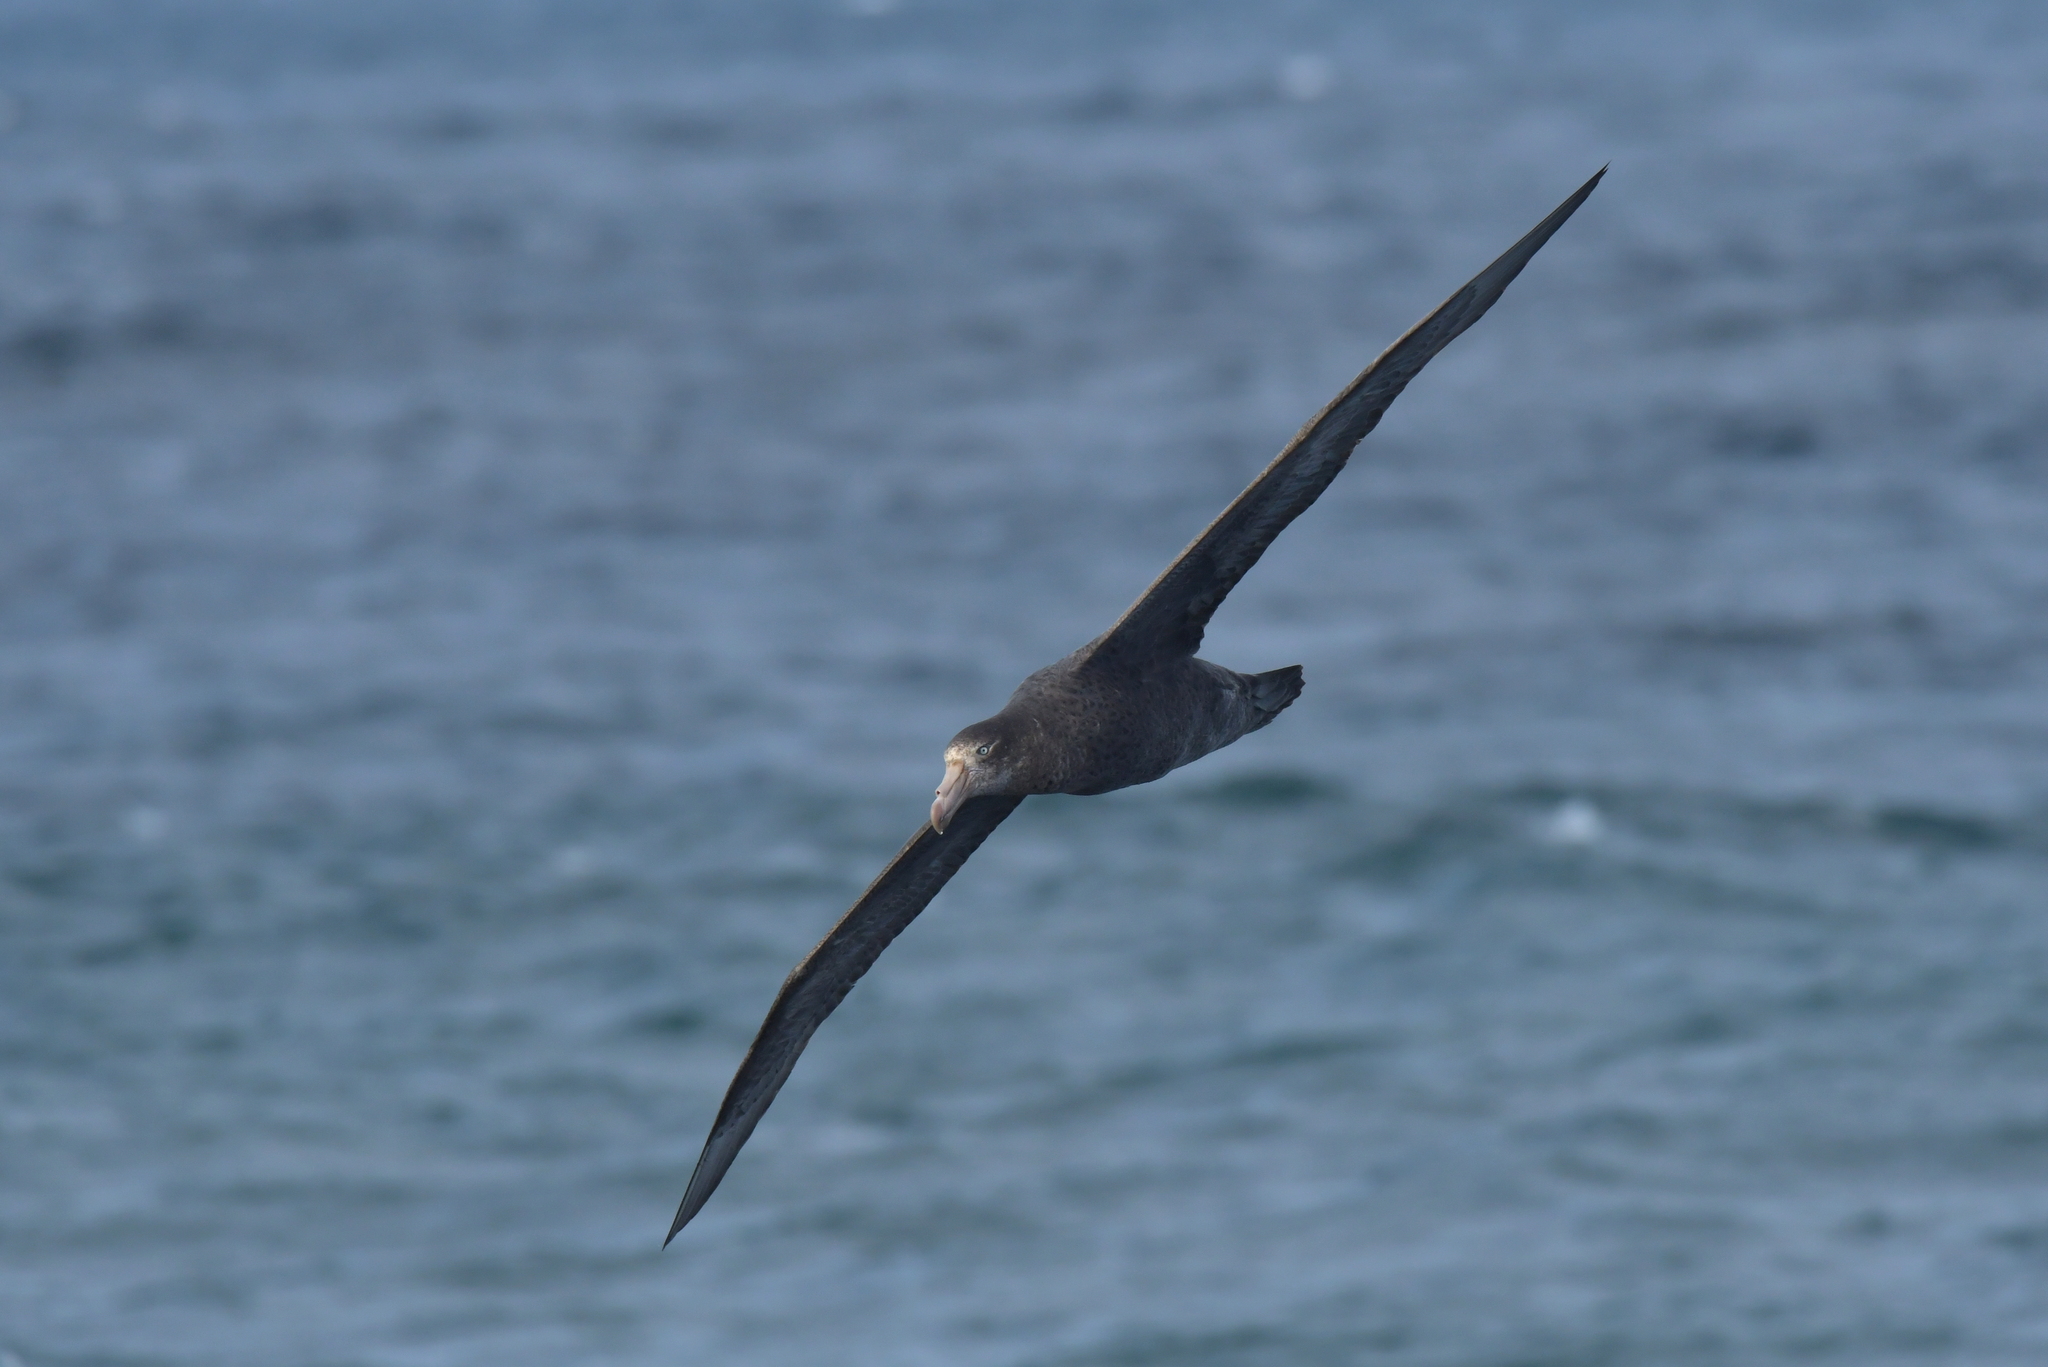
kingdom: Animalia
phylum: Chordata
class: Aves
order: Procellariiformes
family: Procellariidae
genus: Macronectes
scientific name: Macronectes halli
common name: Northern giant petrel
